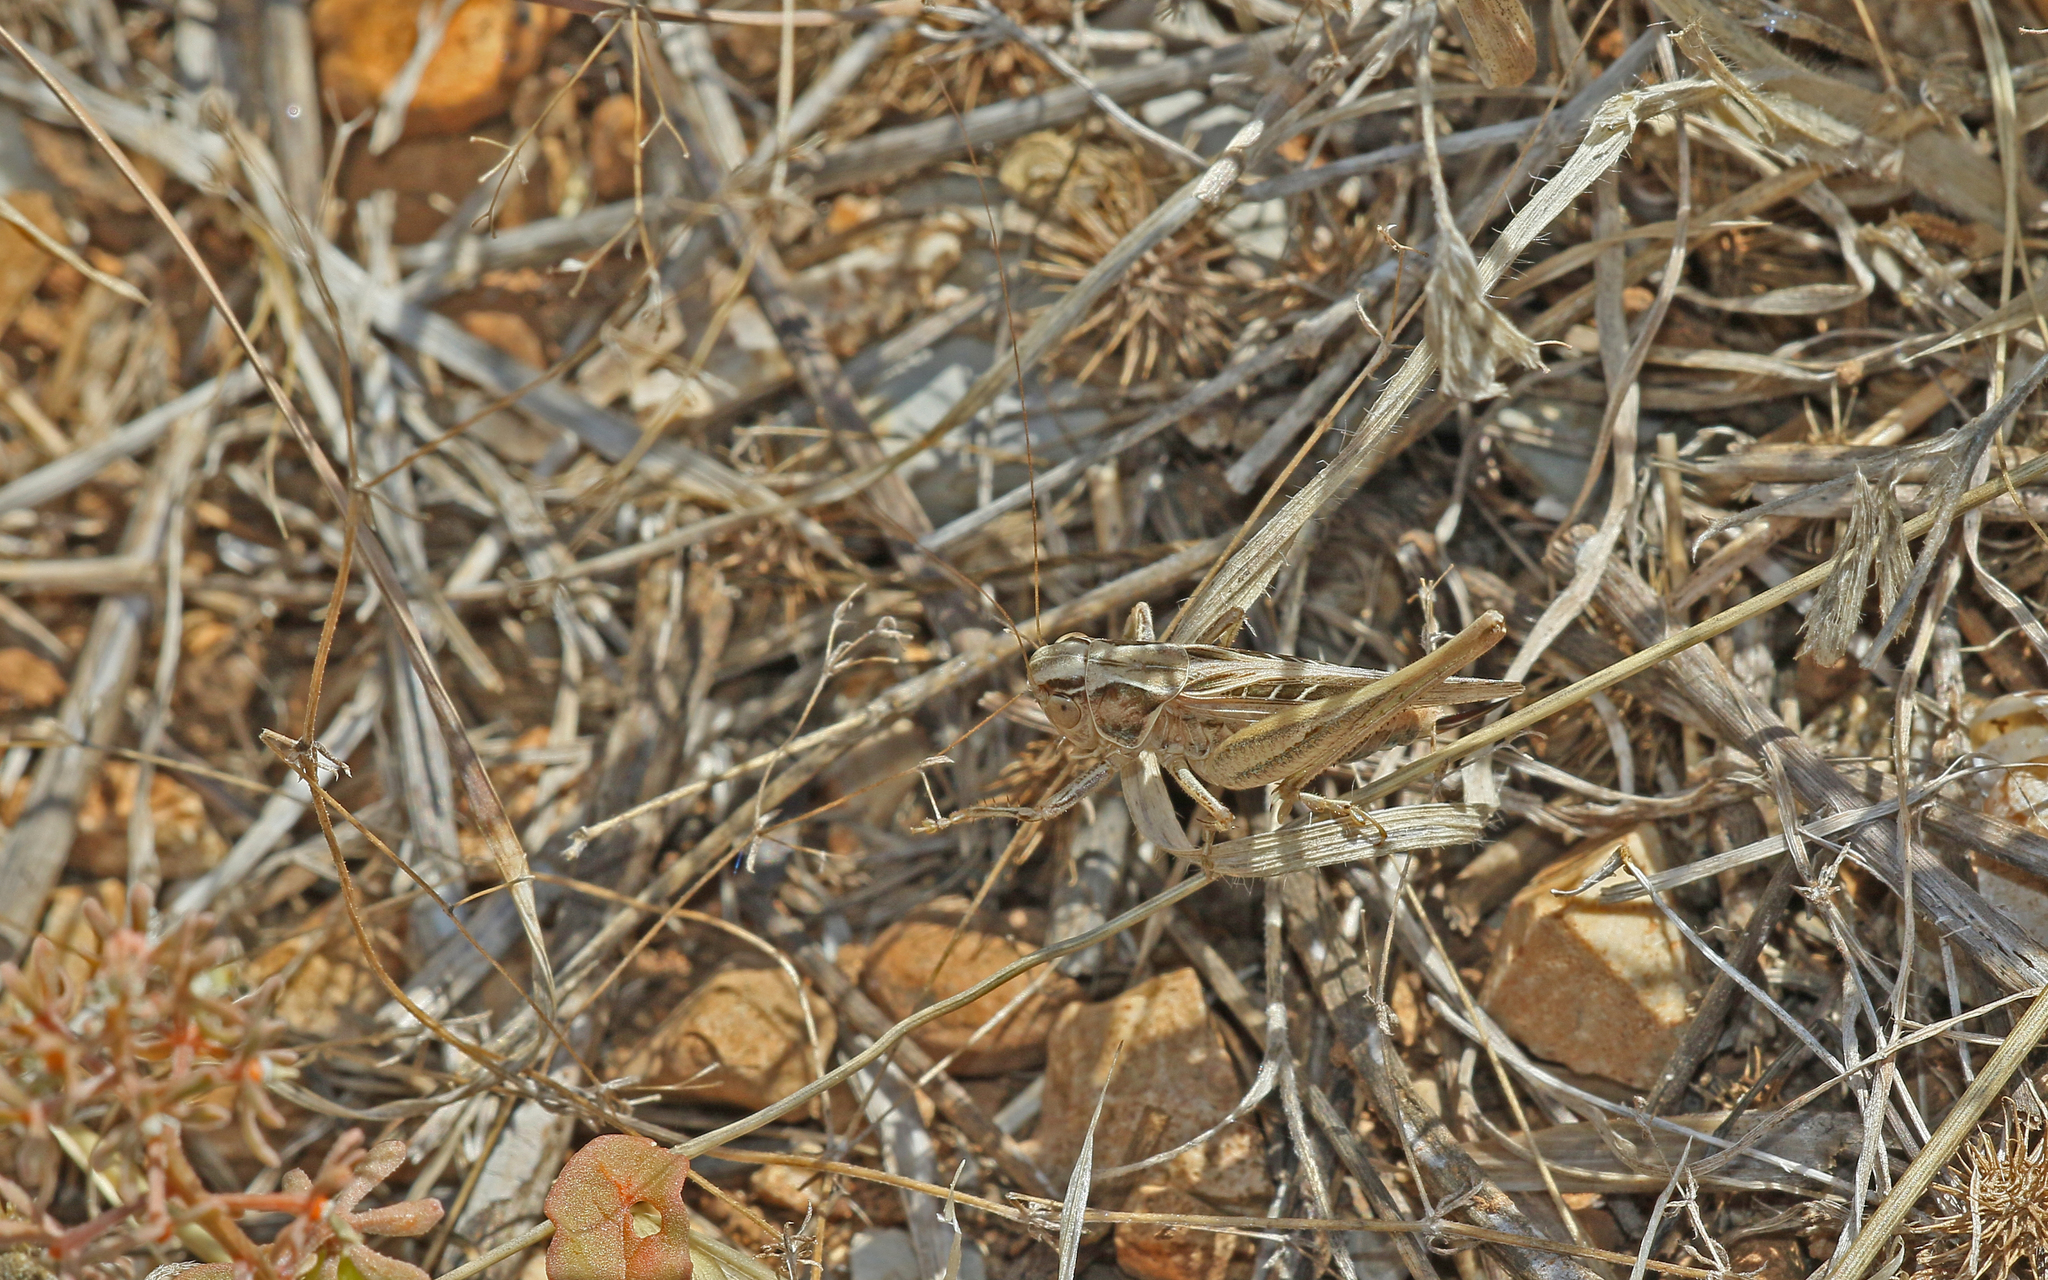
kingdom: Animalia
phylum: Arthropoda
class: Insecta
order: Orthoptera
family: Tettigoniidae
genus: Tessellana
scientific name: Tessellana tessellata
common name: Grasshopper
